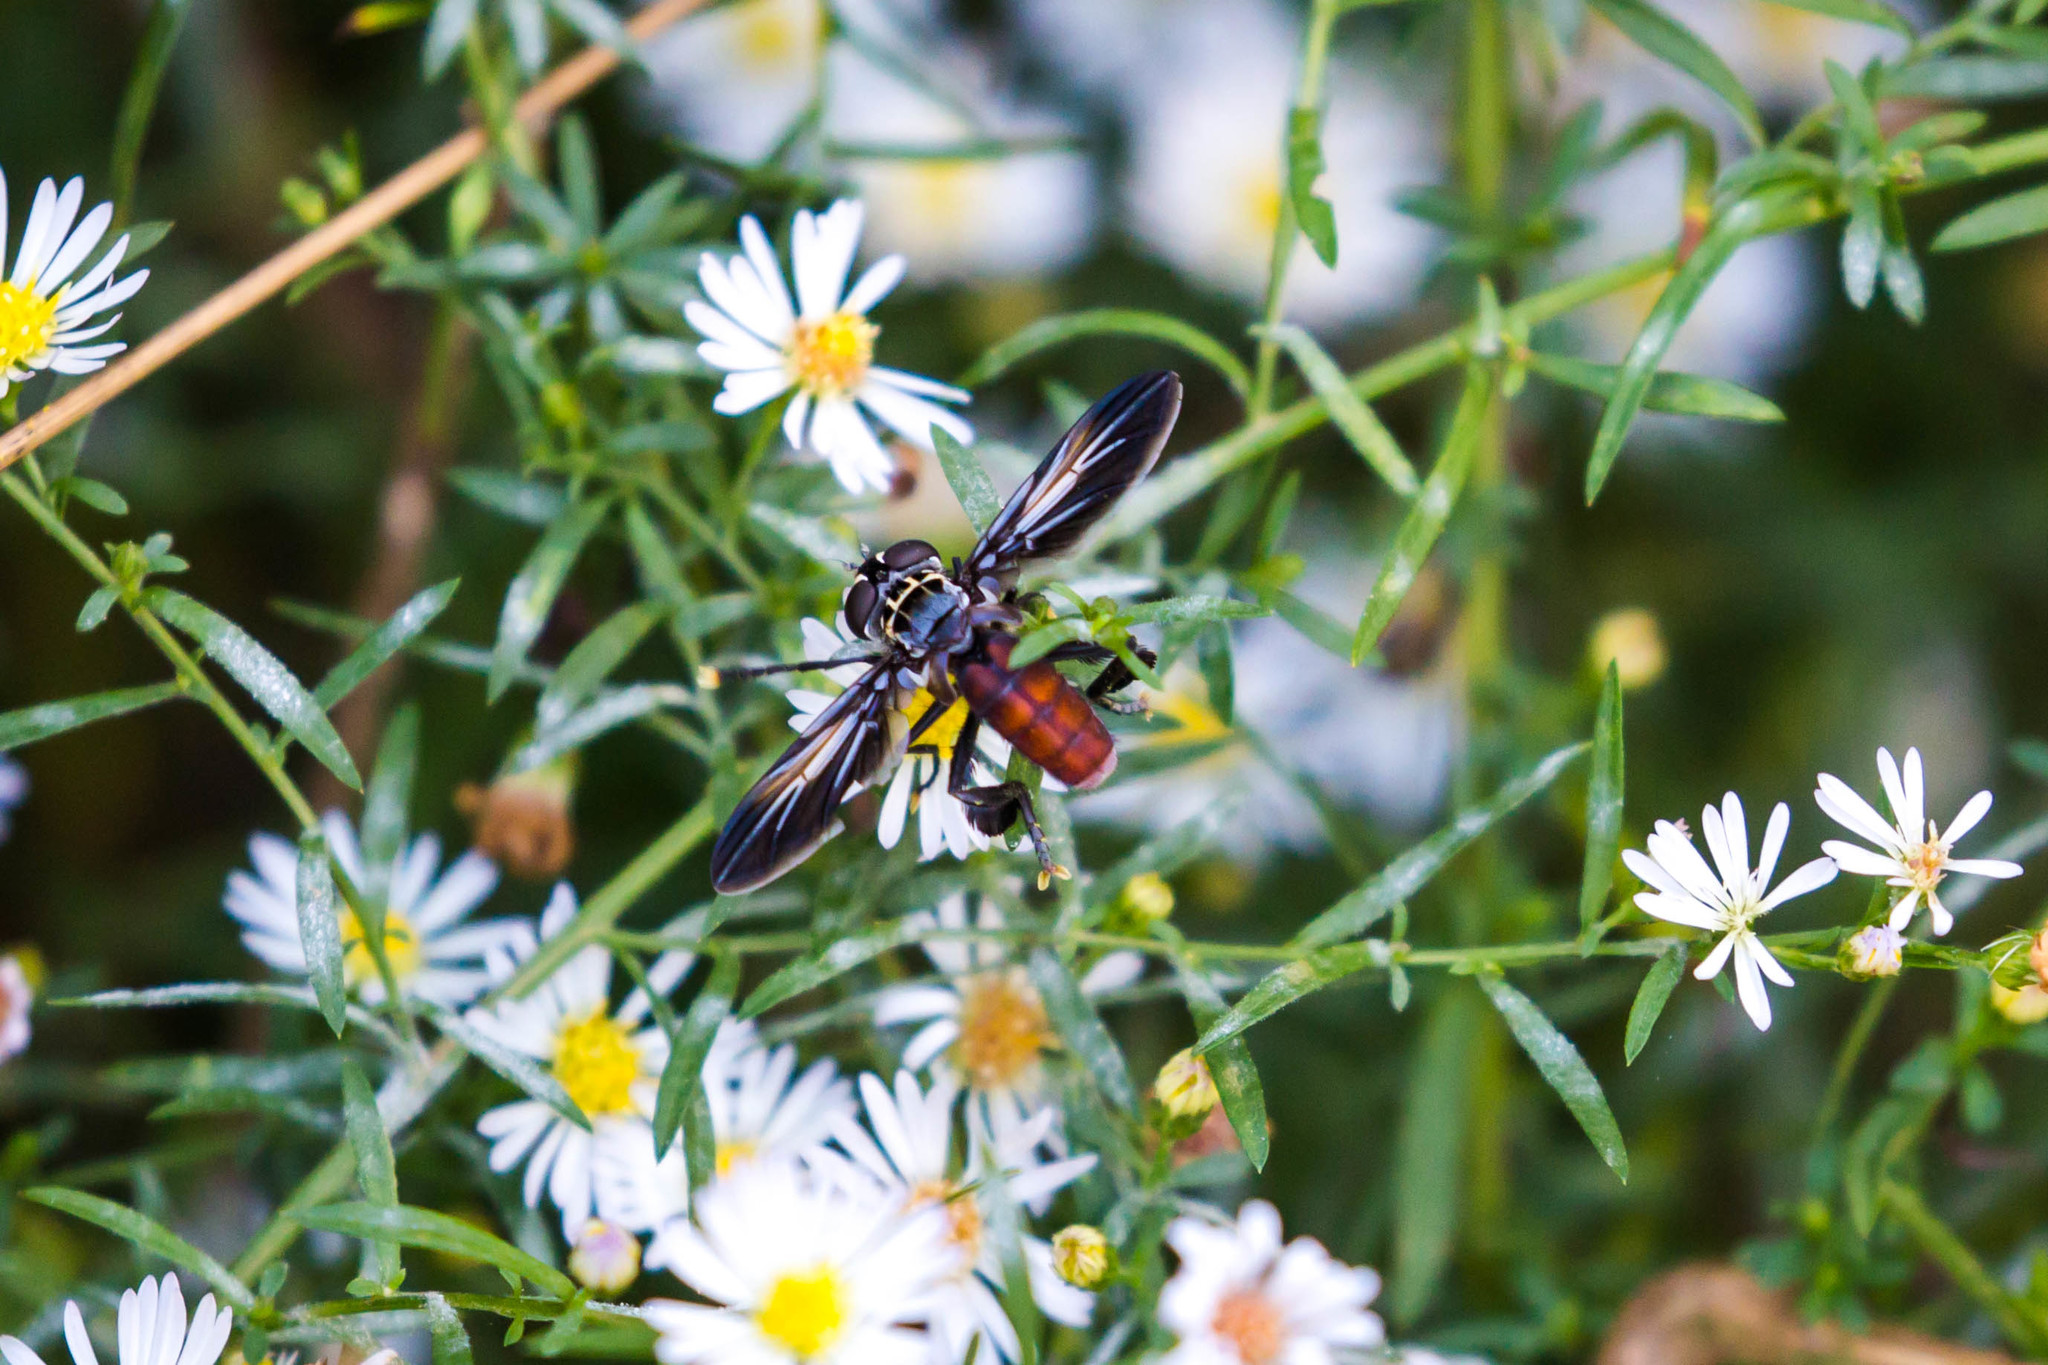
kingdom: Animalia
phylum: Arthropoda
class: Insecta
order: Diptera
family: Tachinidae
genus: Trichopoda
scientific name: Trichopoda pennipes
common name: Tachinid fly
